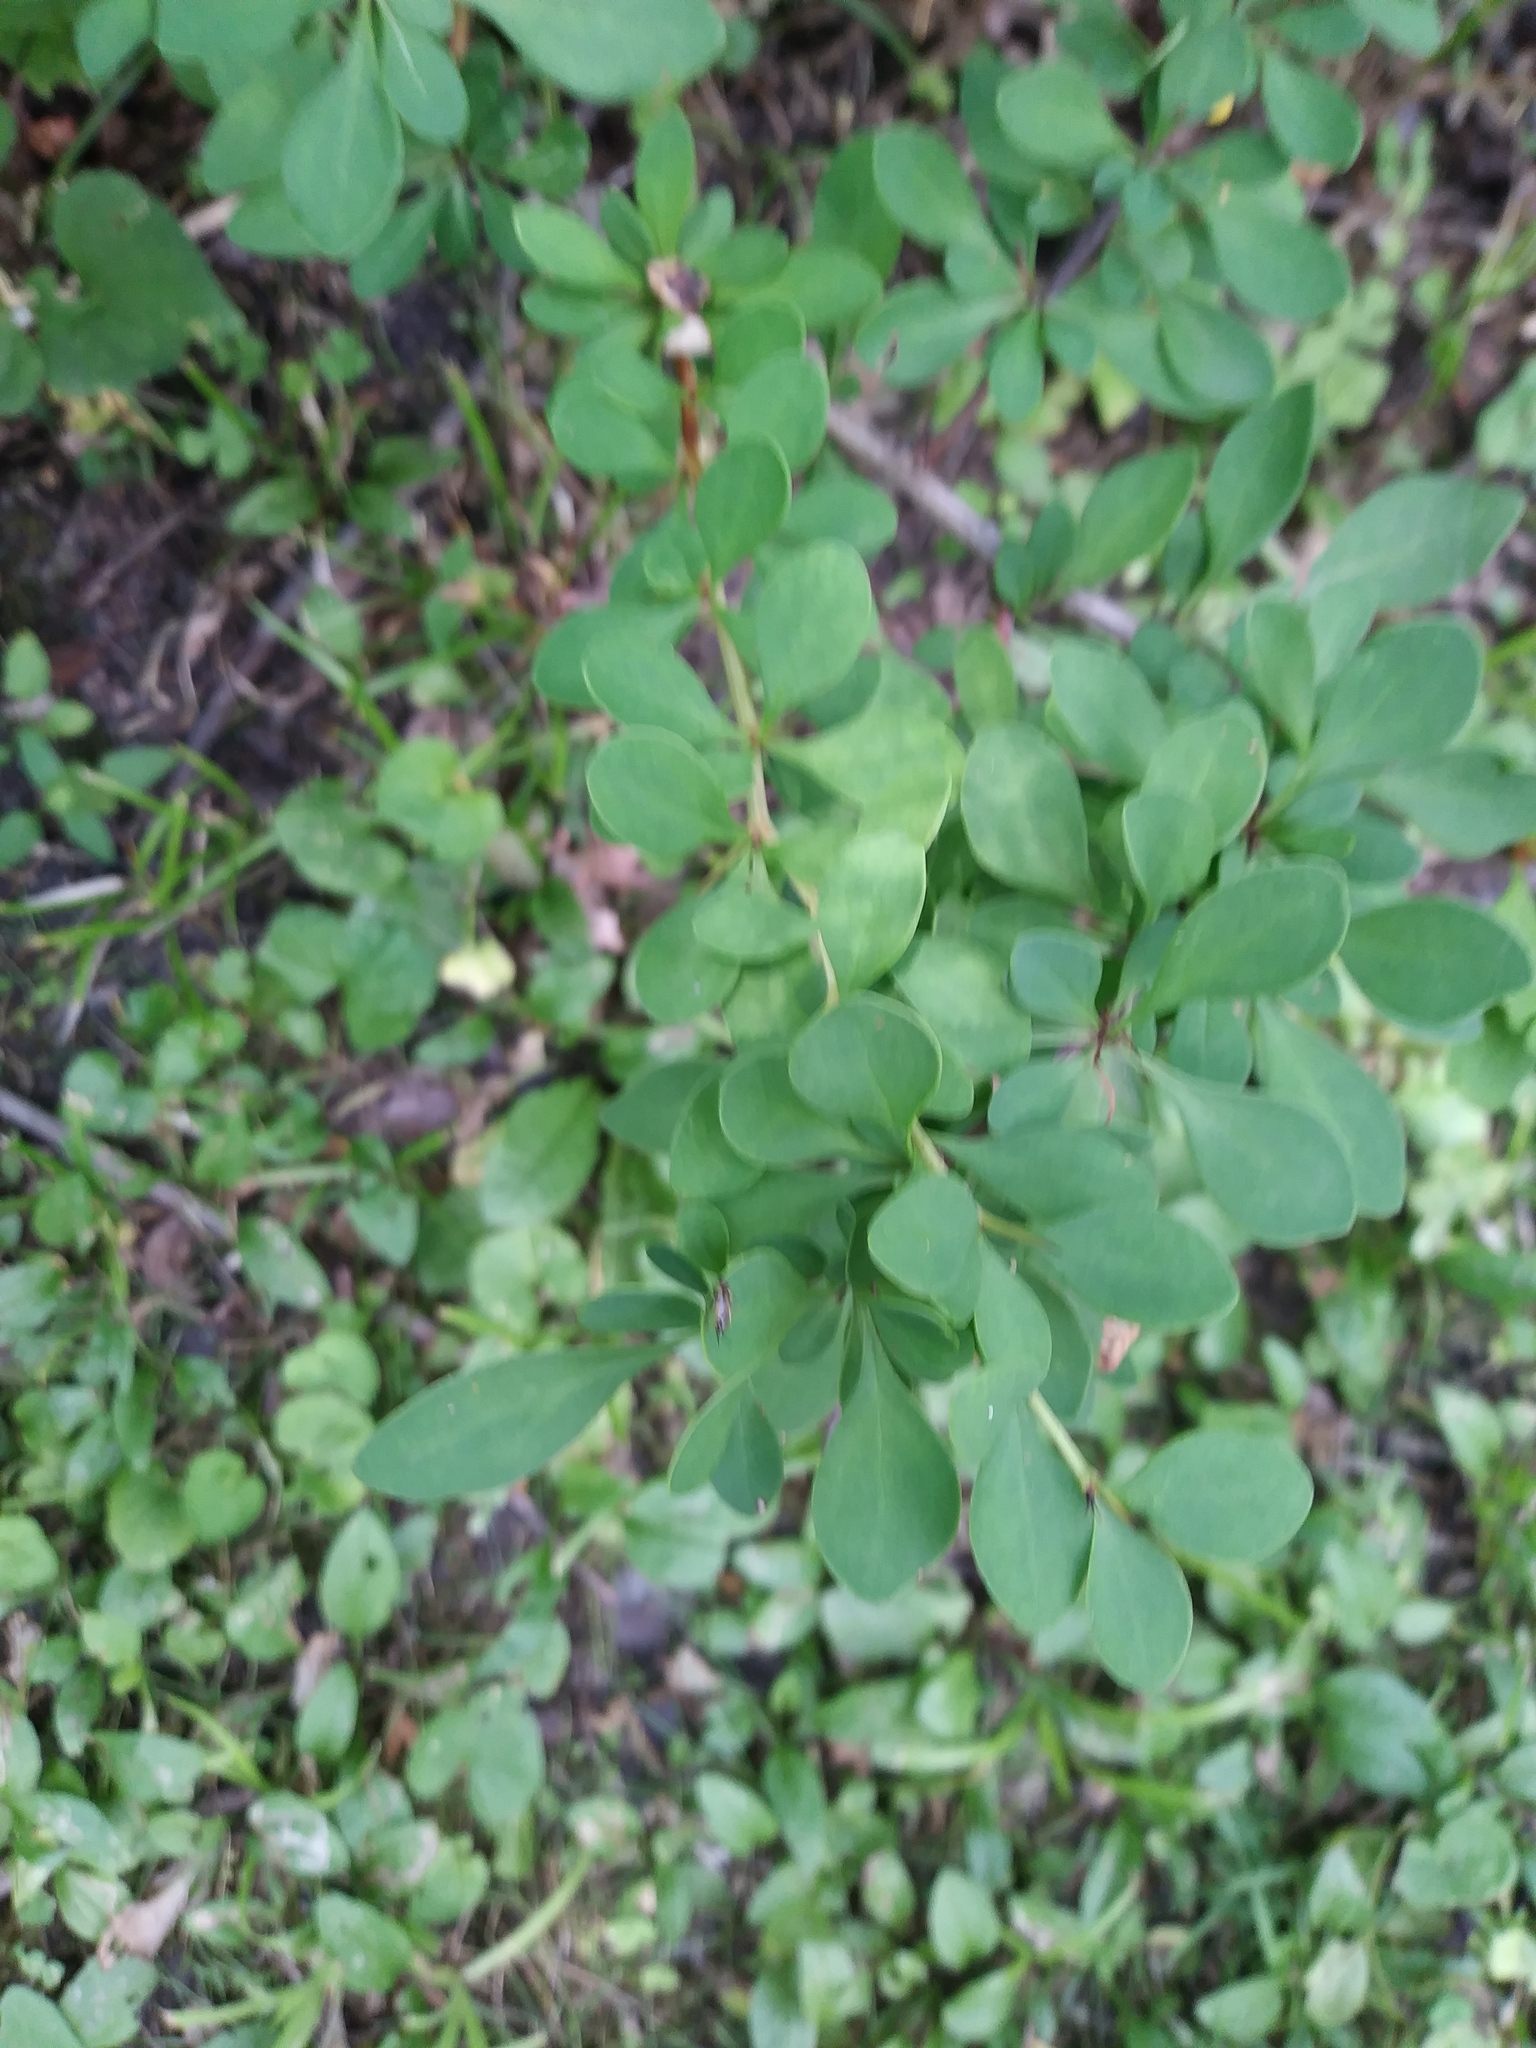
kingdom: Plantae
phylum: Tracheophyta
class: Magnoliopsida
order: Ranunculales
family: Berberidaceae
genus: Berberis
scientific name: Berberis thunbergii
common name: Japanese barberry
